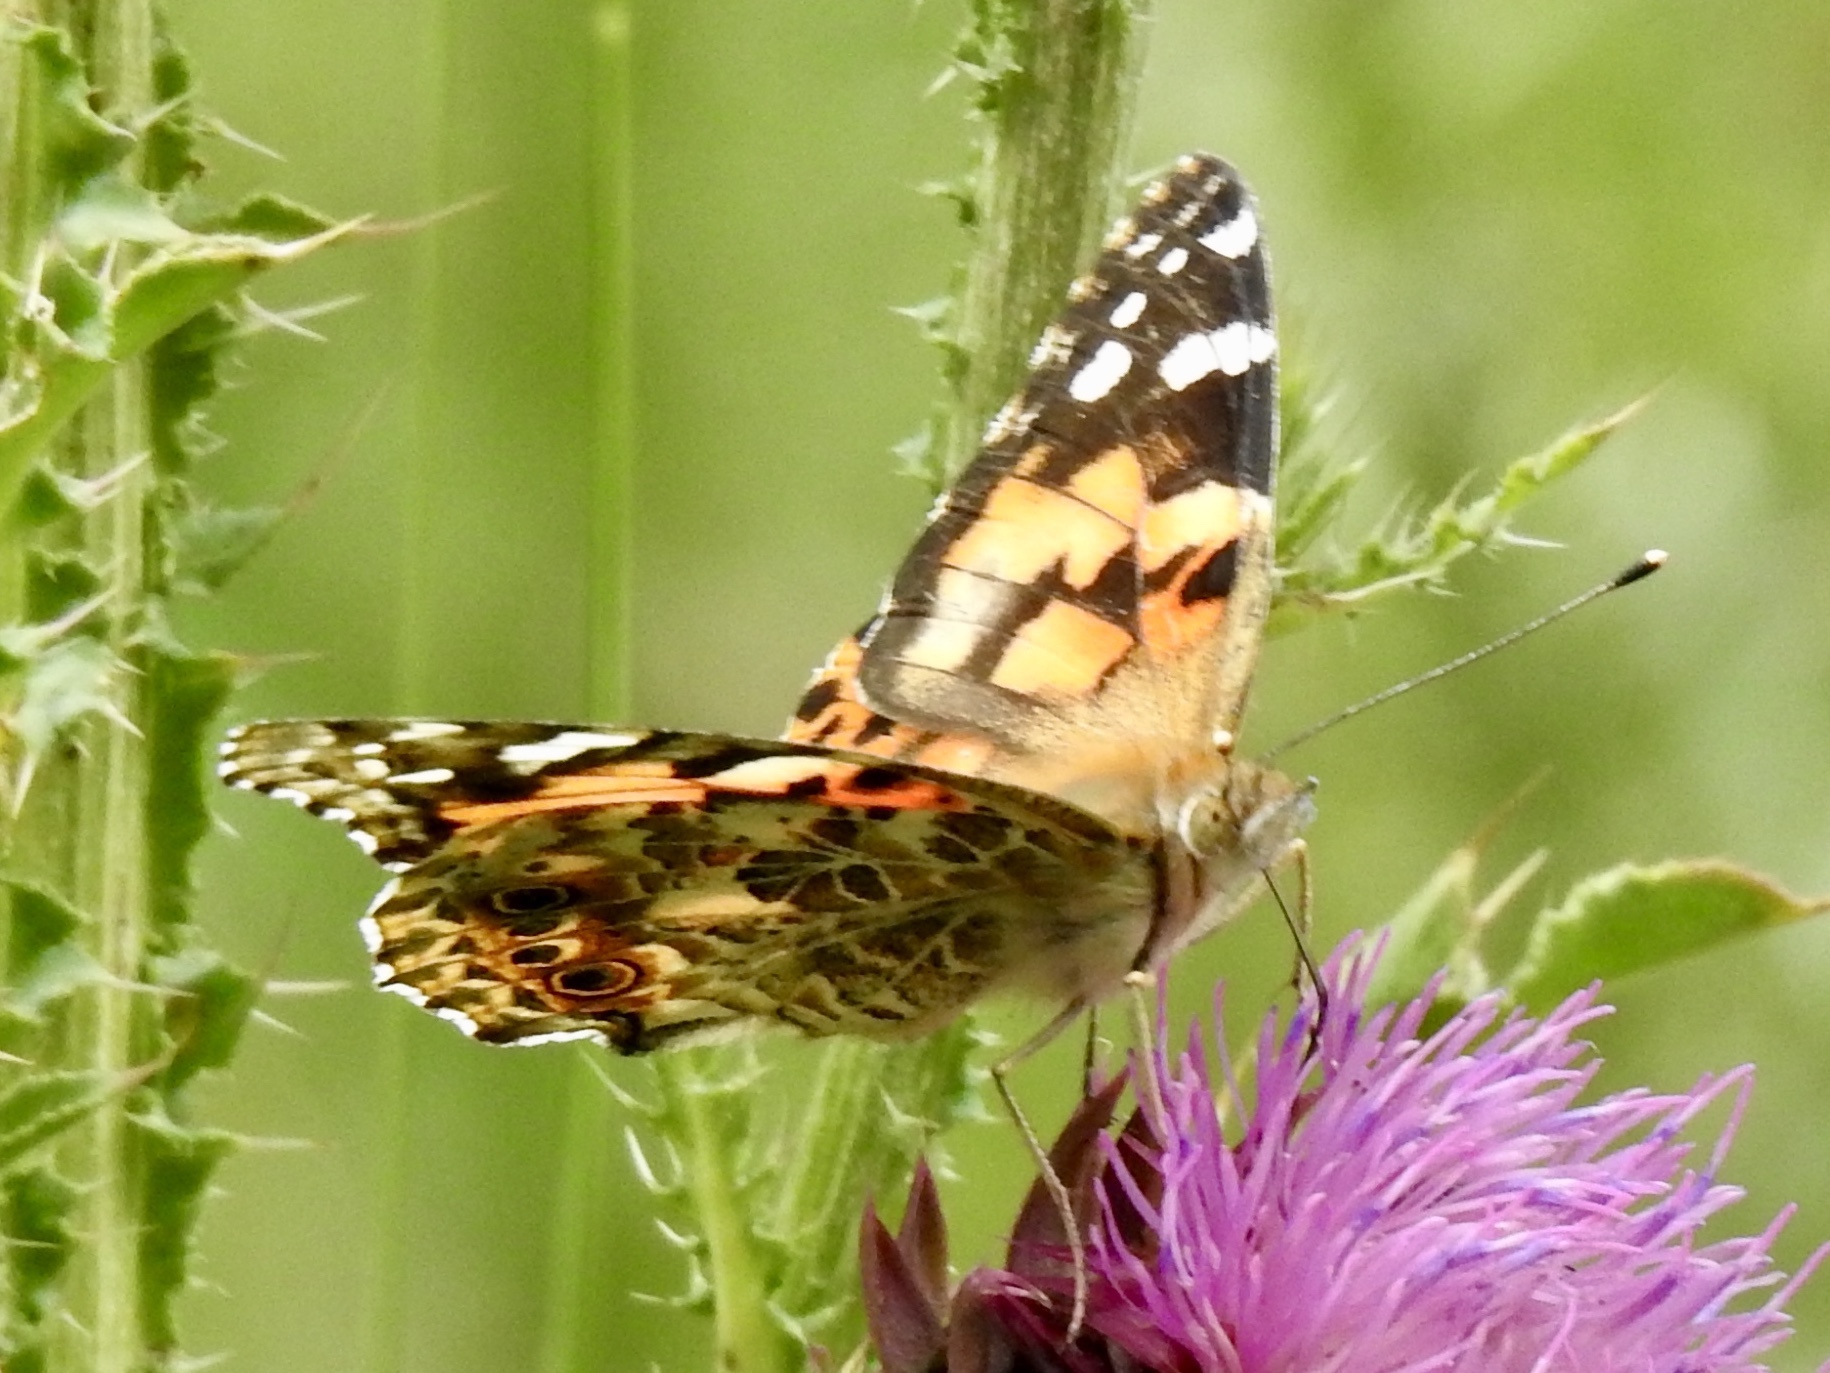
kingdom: Animalia
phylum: Arthropoda
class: Insecta
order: Lepidoptera
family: Nymphalidae
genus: Vanessa
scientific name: Vanessa cardui
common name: Painted lady
